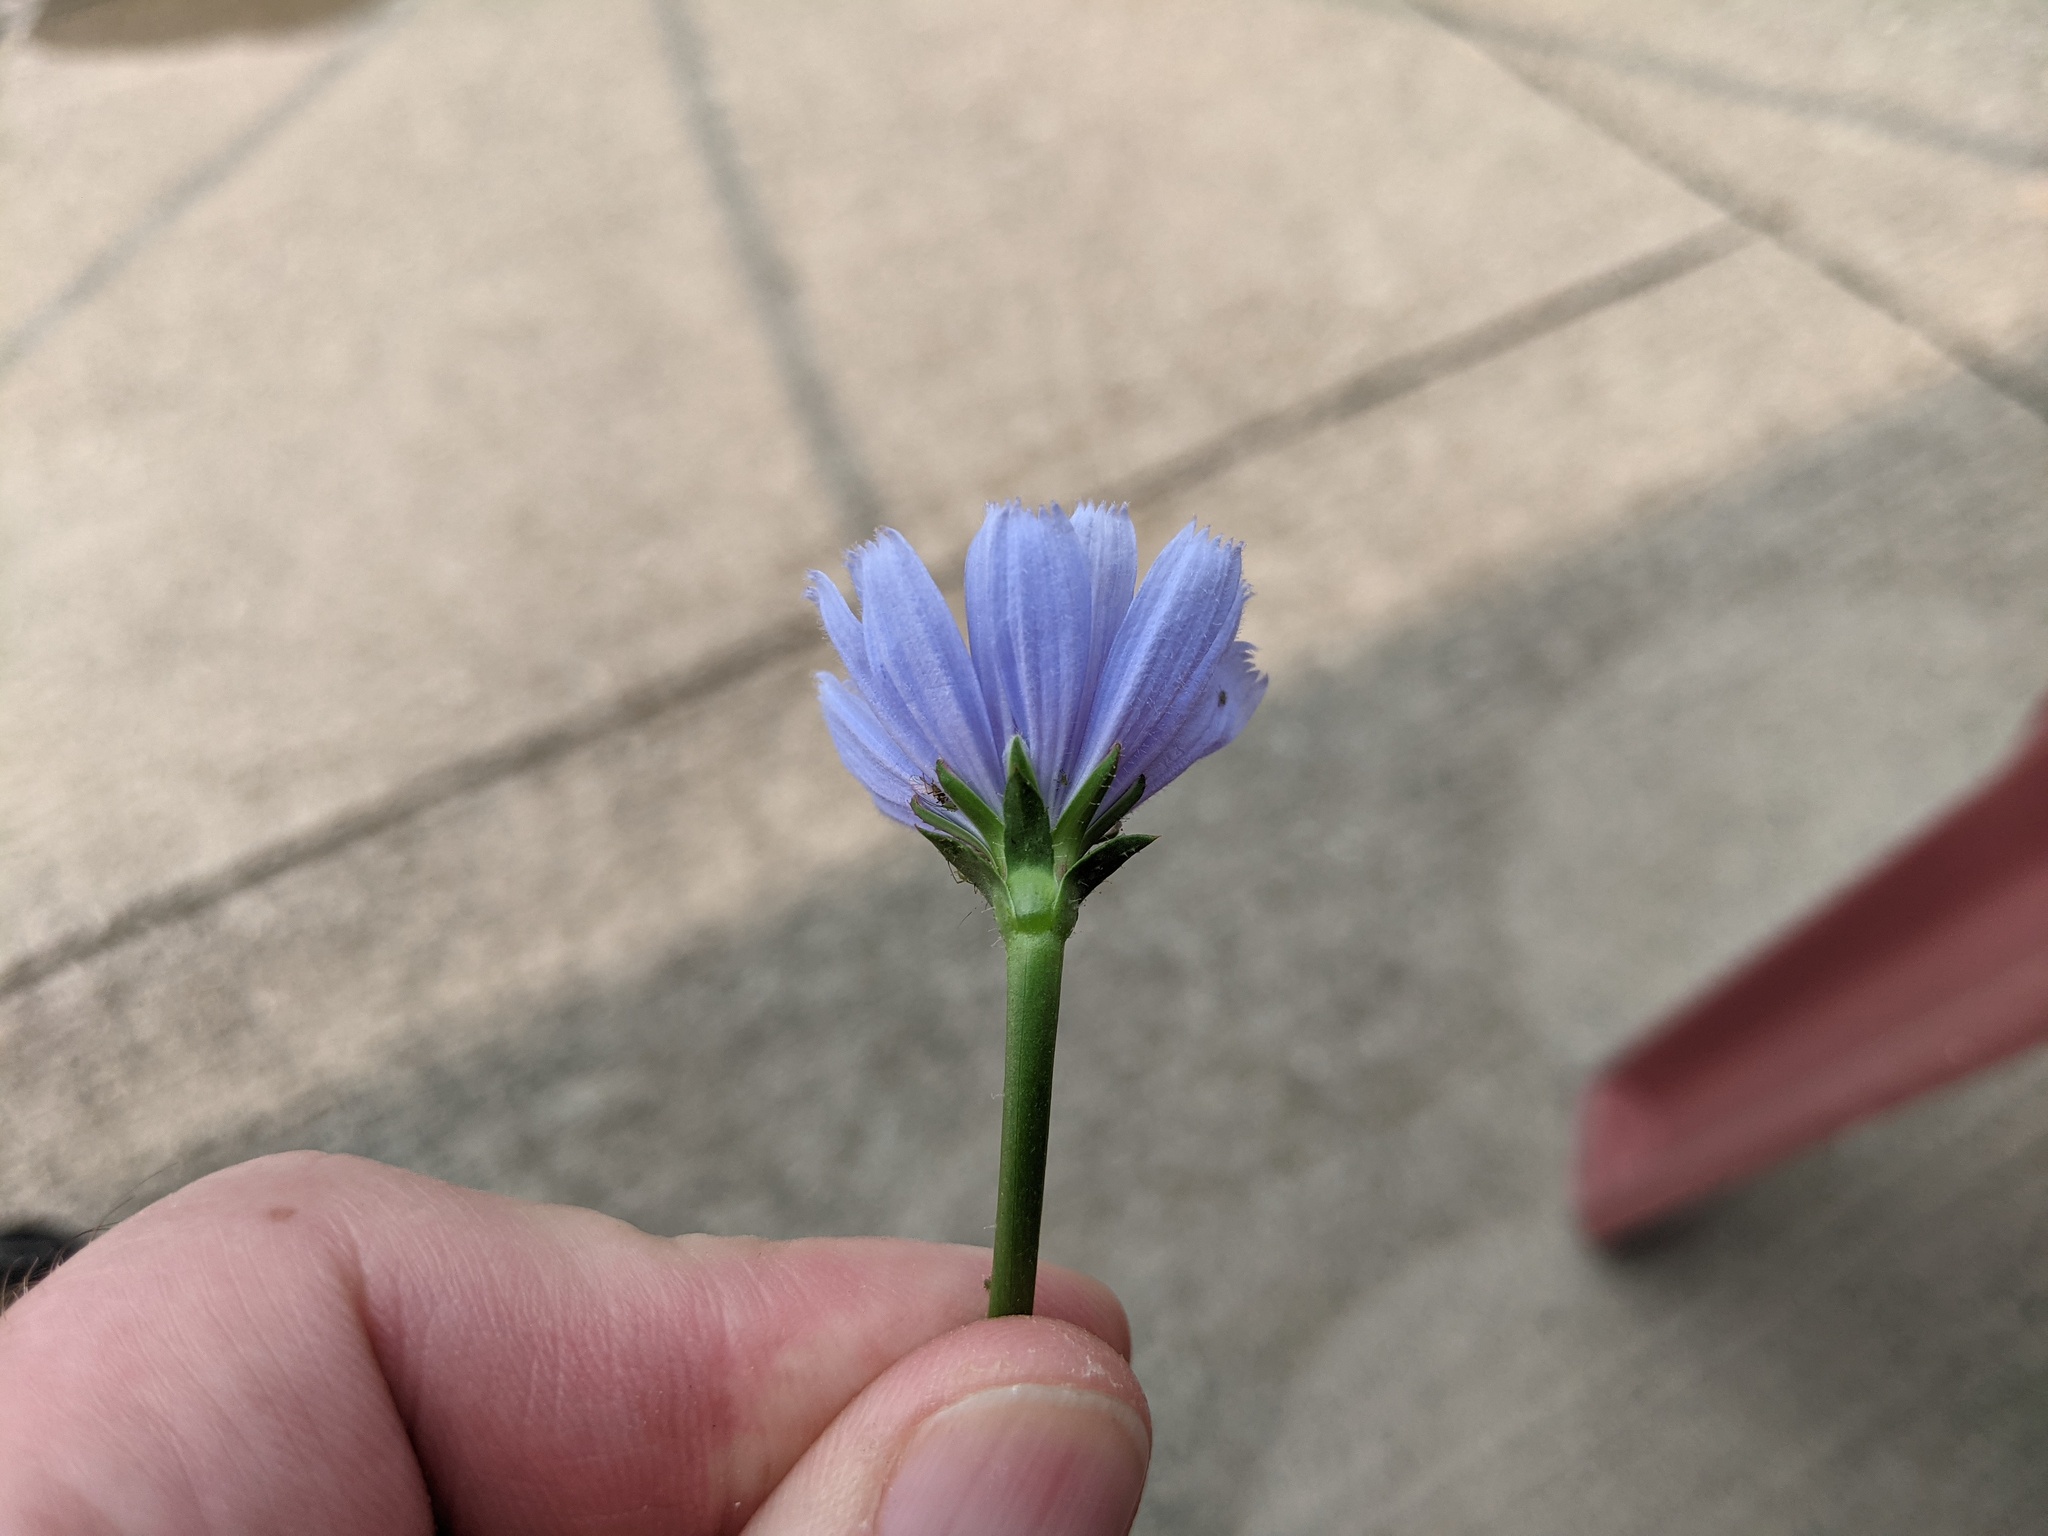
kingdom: Plantae
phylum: Tracheophyta
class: Magnoliopsida
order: Asterales
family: Asteraceae
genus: Cichorium
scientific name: Cichorium intybus
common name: Chicory
